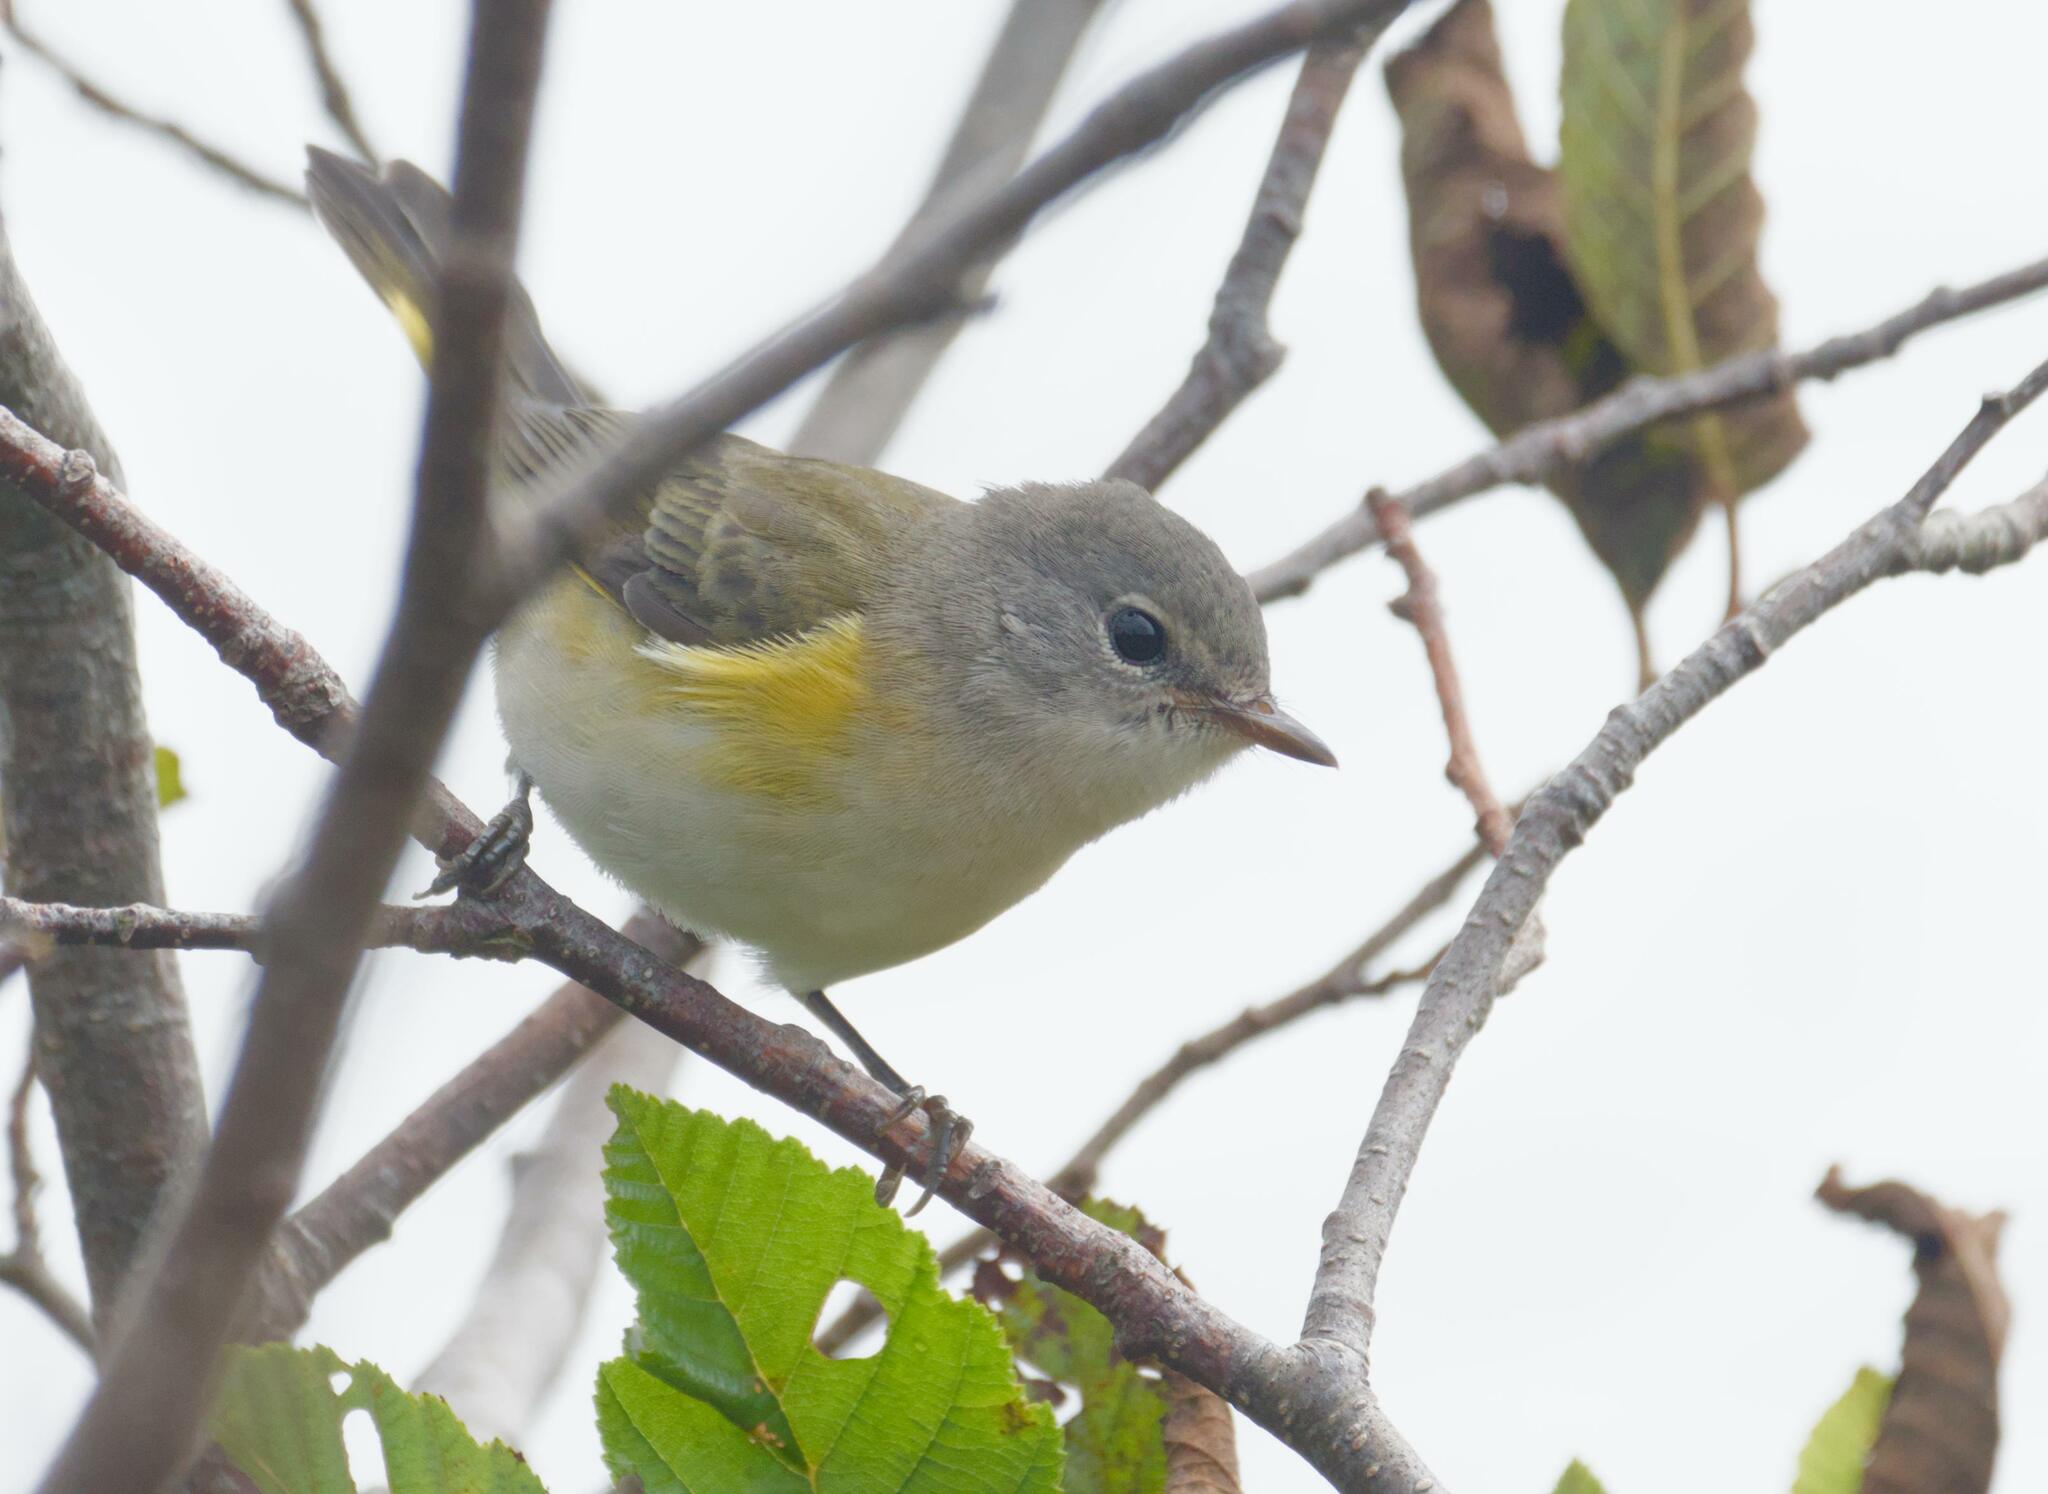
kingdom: Animalia
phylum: Chordata
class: Aves
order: Passeriformes
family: Parulidae
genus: Setophaga
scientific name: Setophaga ruticilla
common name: American redstart
